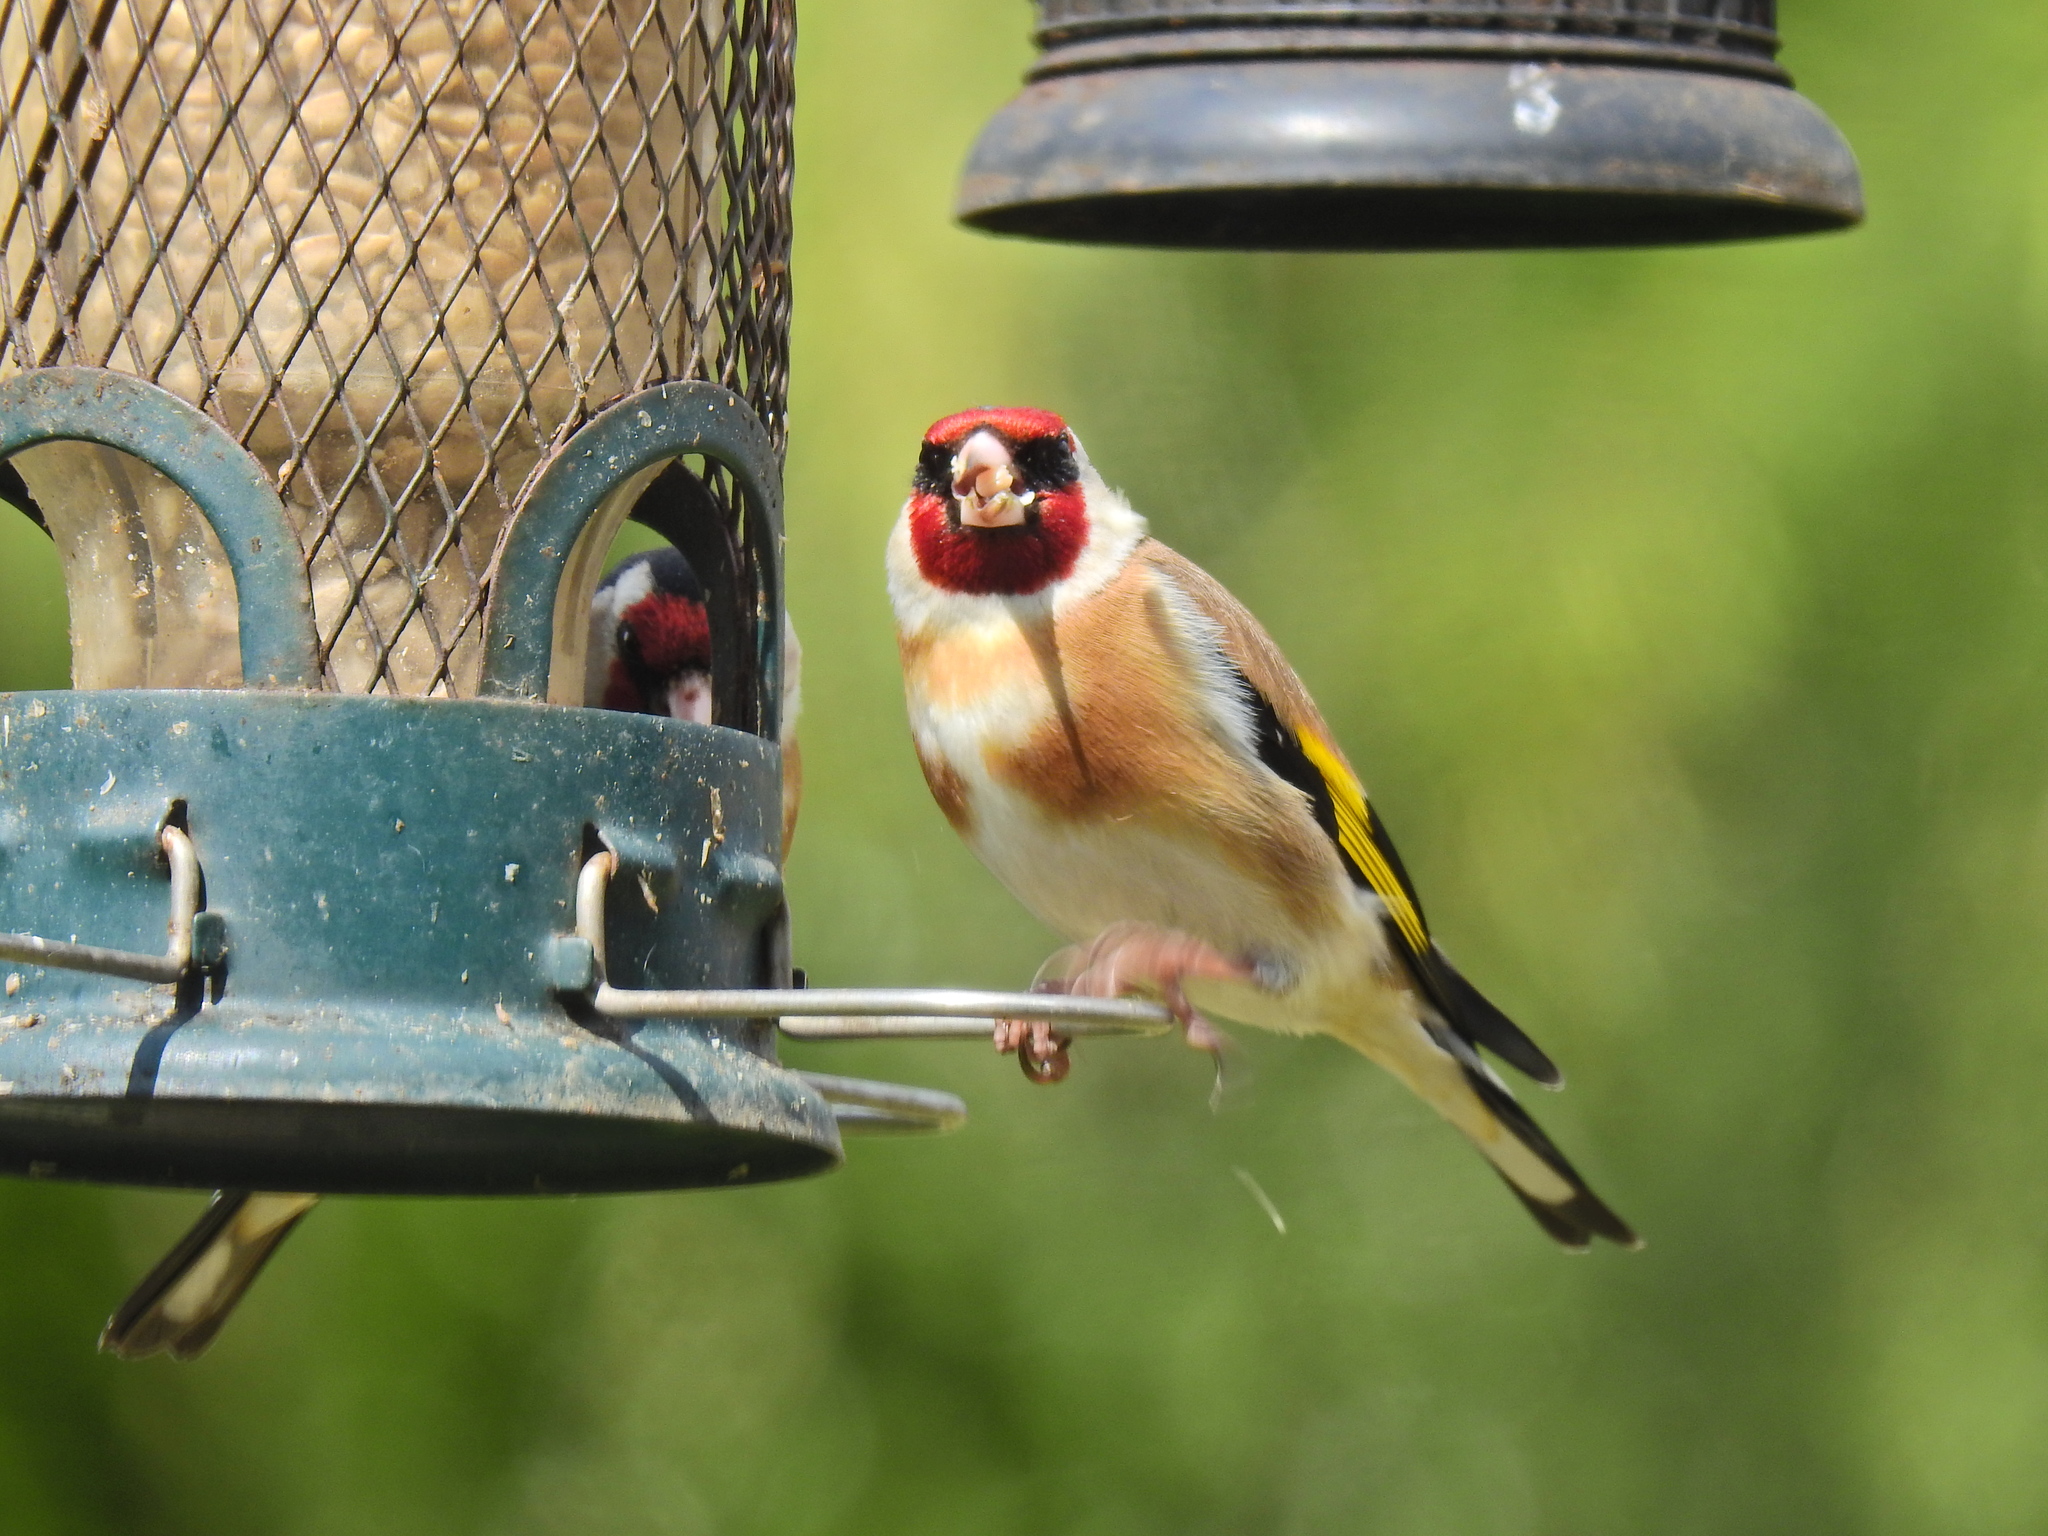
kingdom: Animalia
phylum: Chordata
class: Aves
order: Passeriformes
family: Fringillidae
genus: Carduelis
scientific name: Carduelis carduelis
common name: European goldfinch
